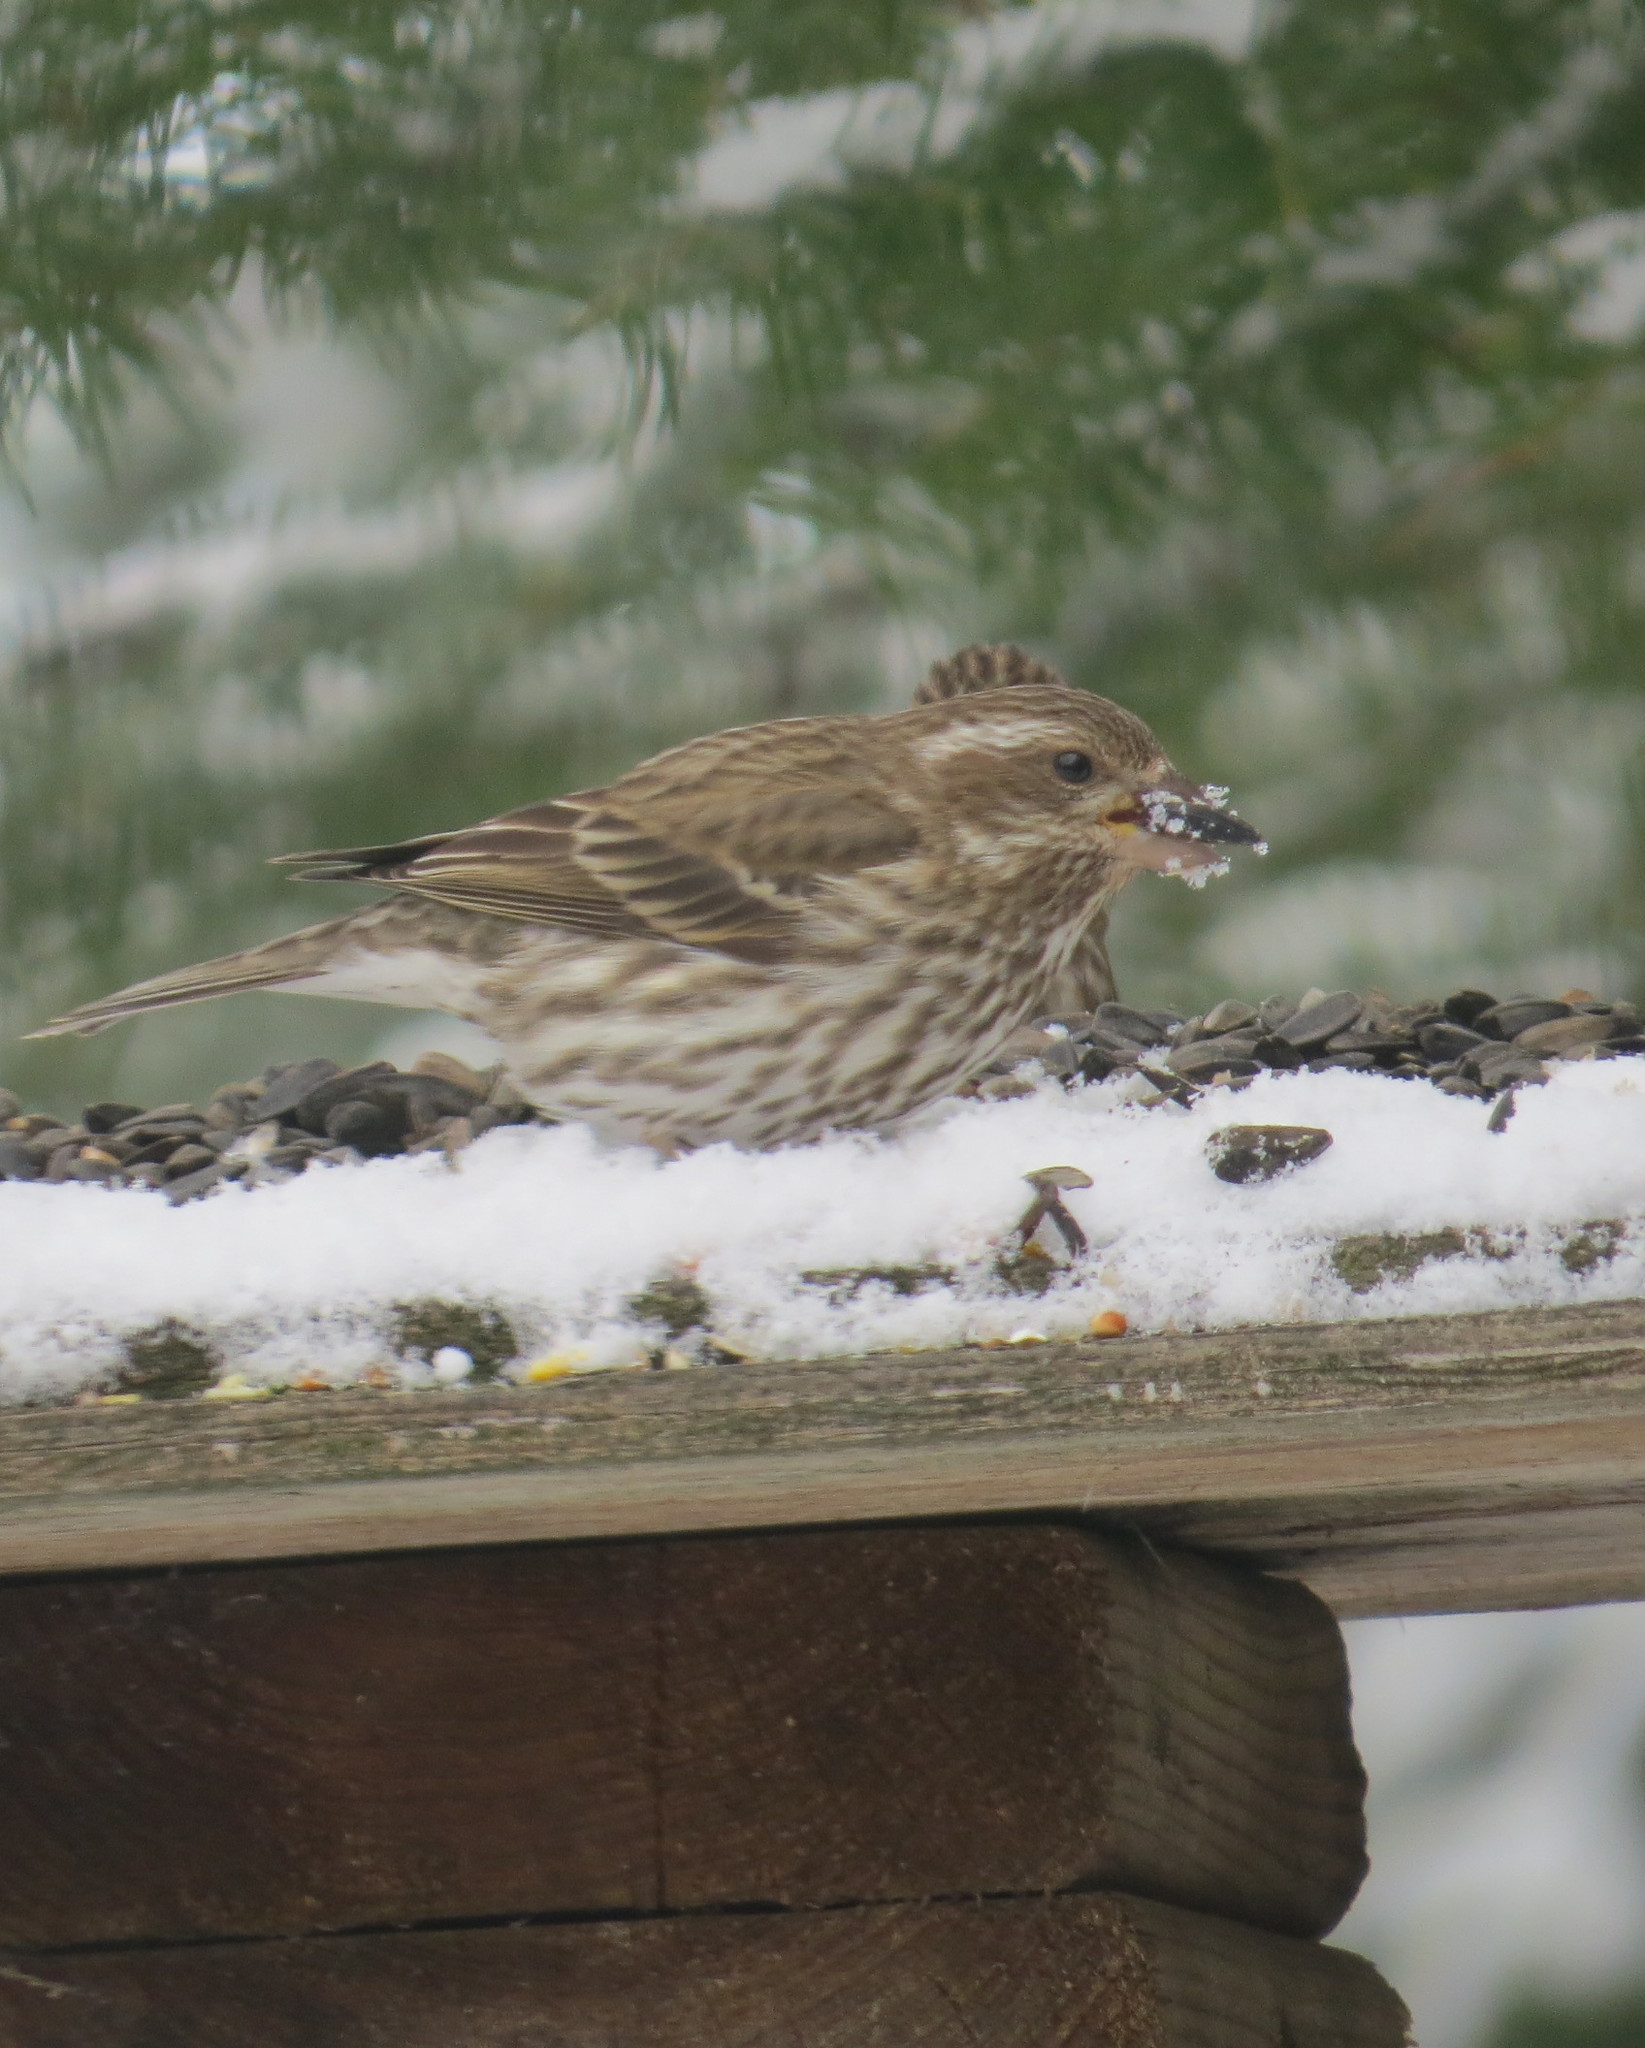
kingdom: Animalia
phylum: Chordata
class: Aves
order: Passeriformes
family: Fringillidae
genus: Haemorhous
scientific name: Haemorhous purpureus
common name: Purple finch
